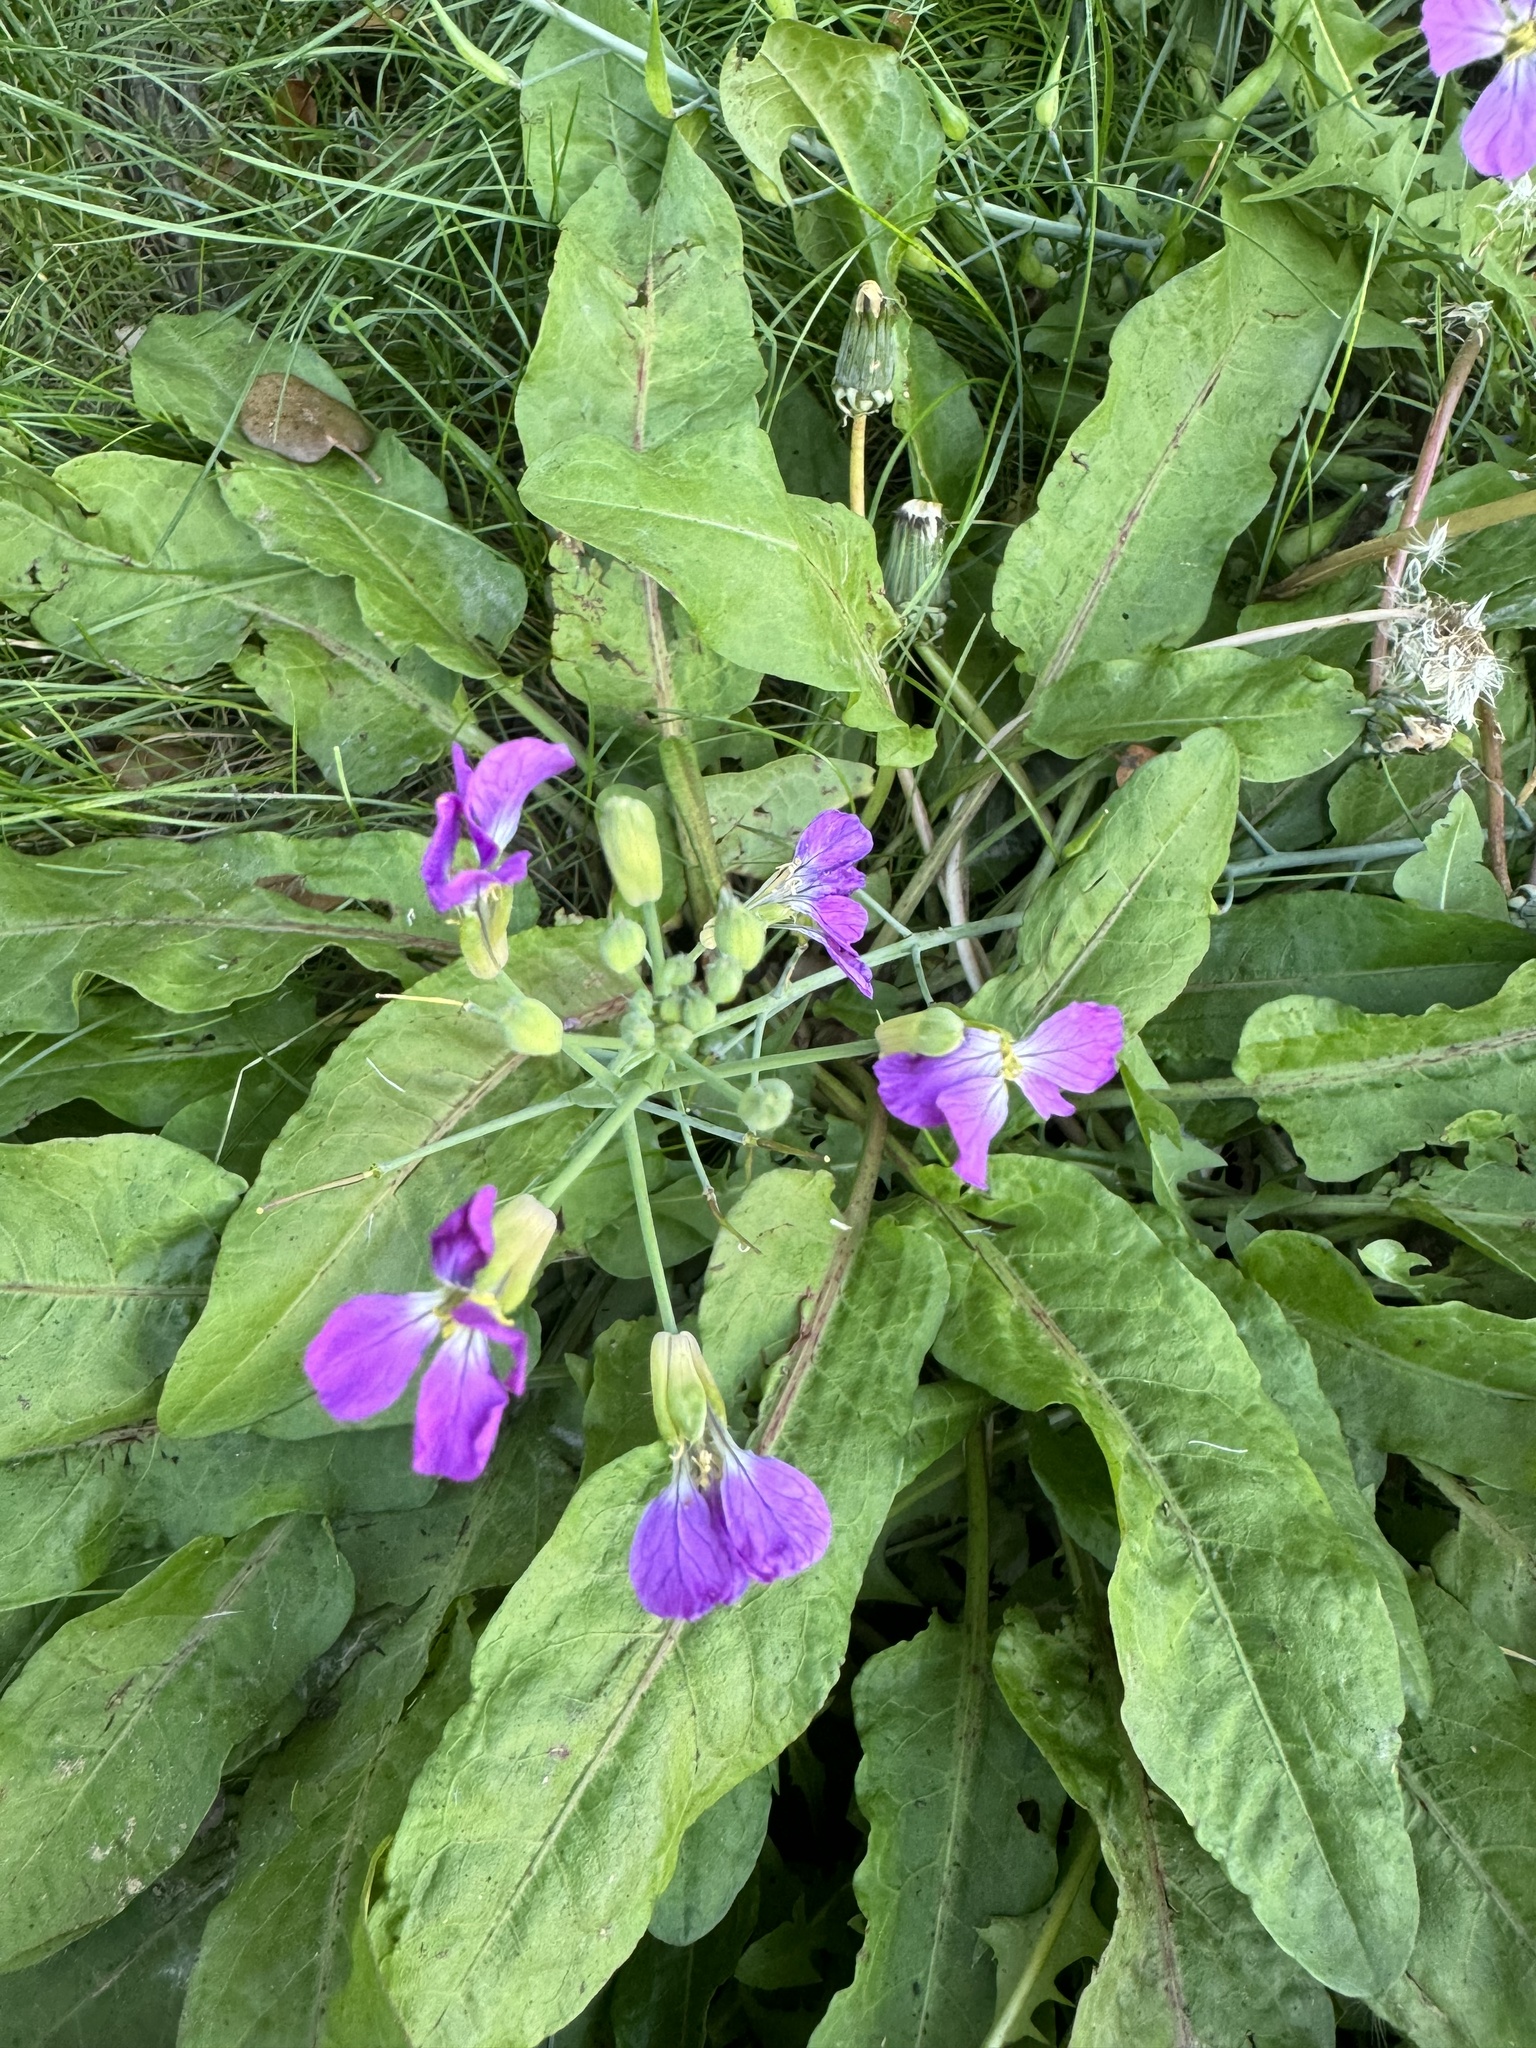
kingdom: Plantae
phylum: Tracheophyta
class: Magnoliopsida
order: Brassicales
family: Brassicaceae
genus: Raphanus
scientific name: Raphanus sativus
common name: Cultivated radish
